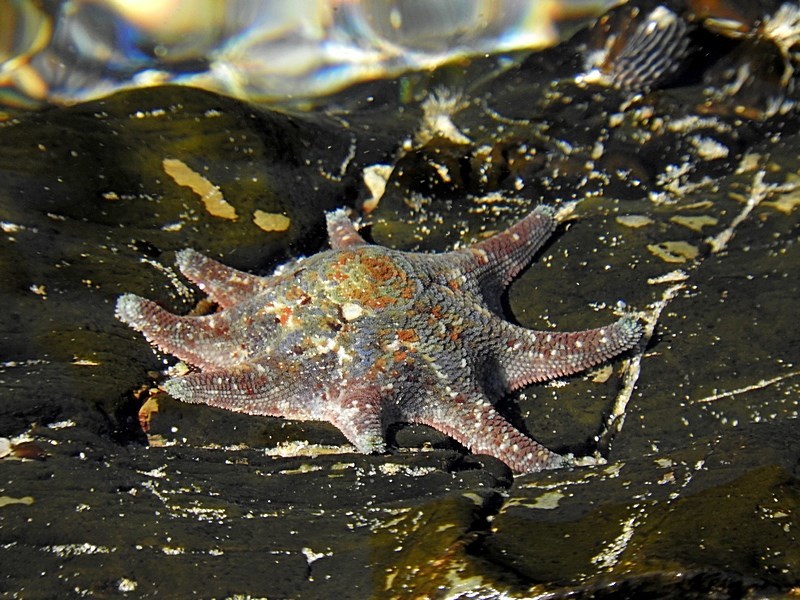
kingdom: Animalia
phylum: Echinodermata
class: Asteroidea
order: Valvatida
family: Asterinidae
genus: Meridiastra
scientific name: Meridiastra calcar
